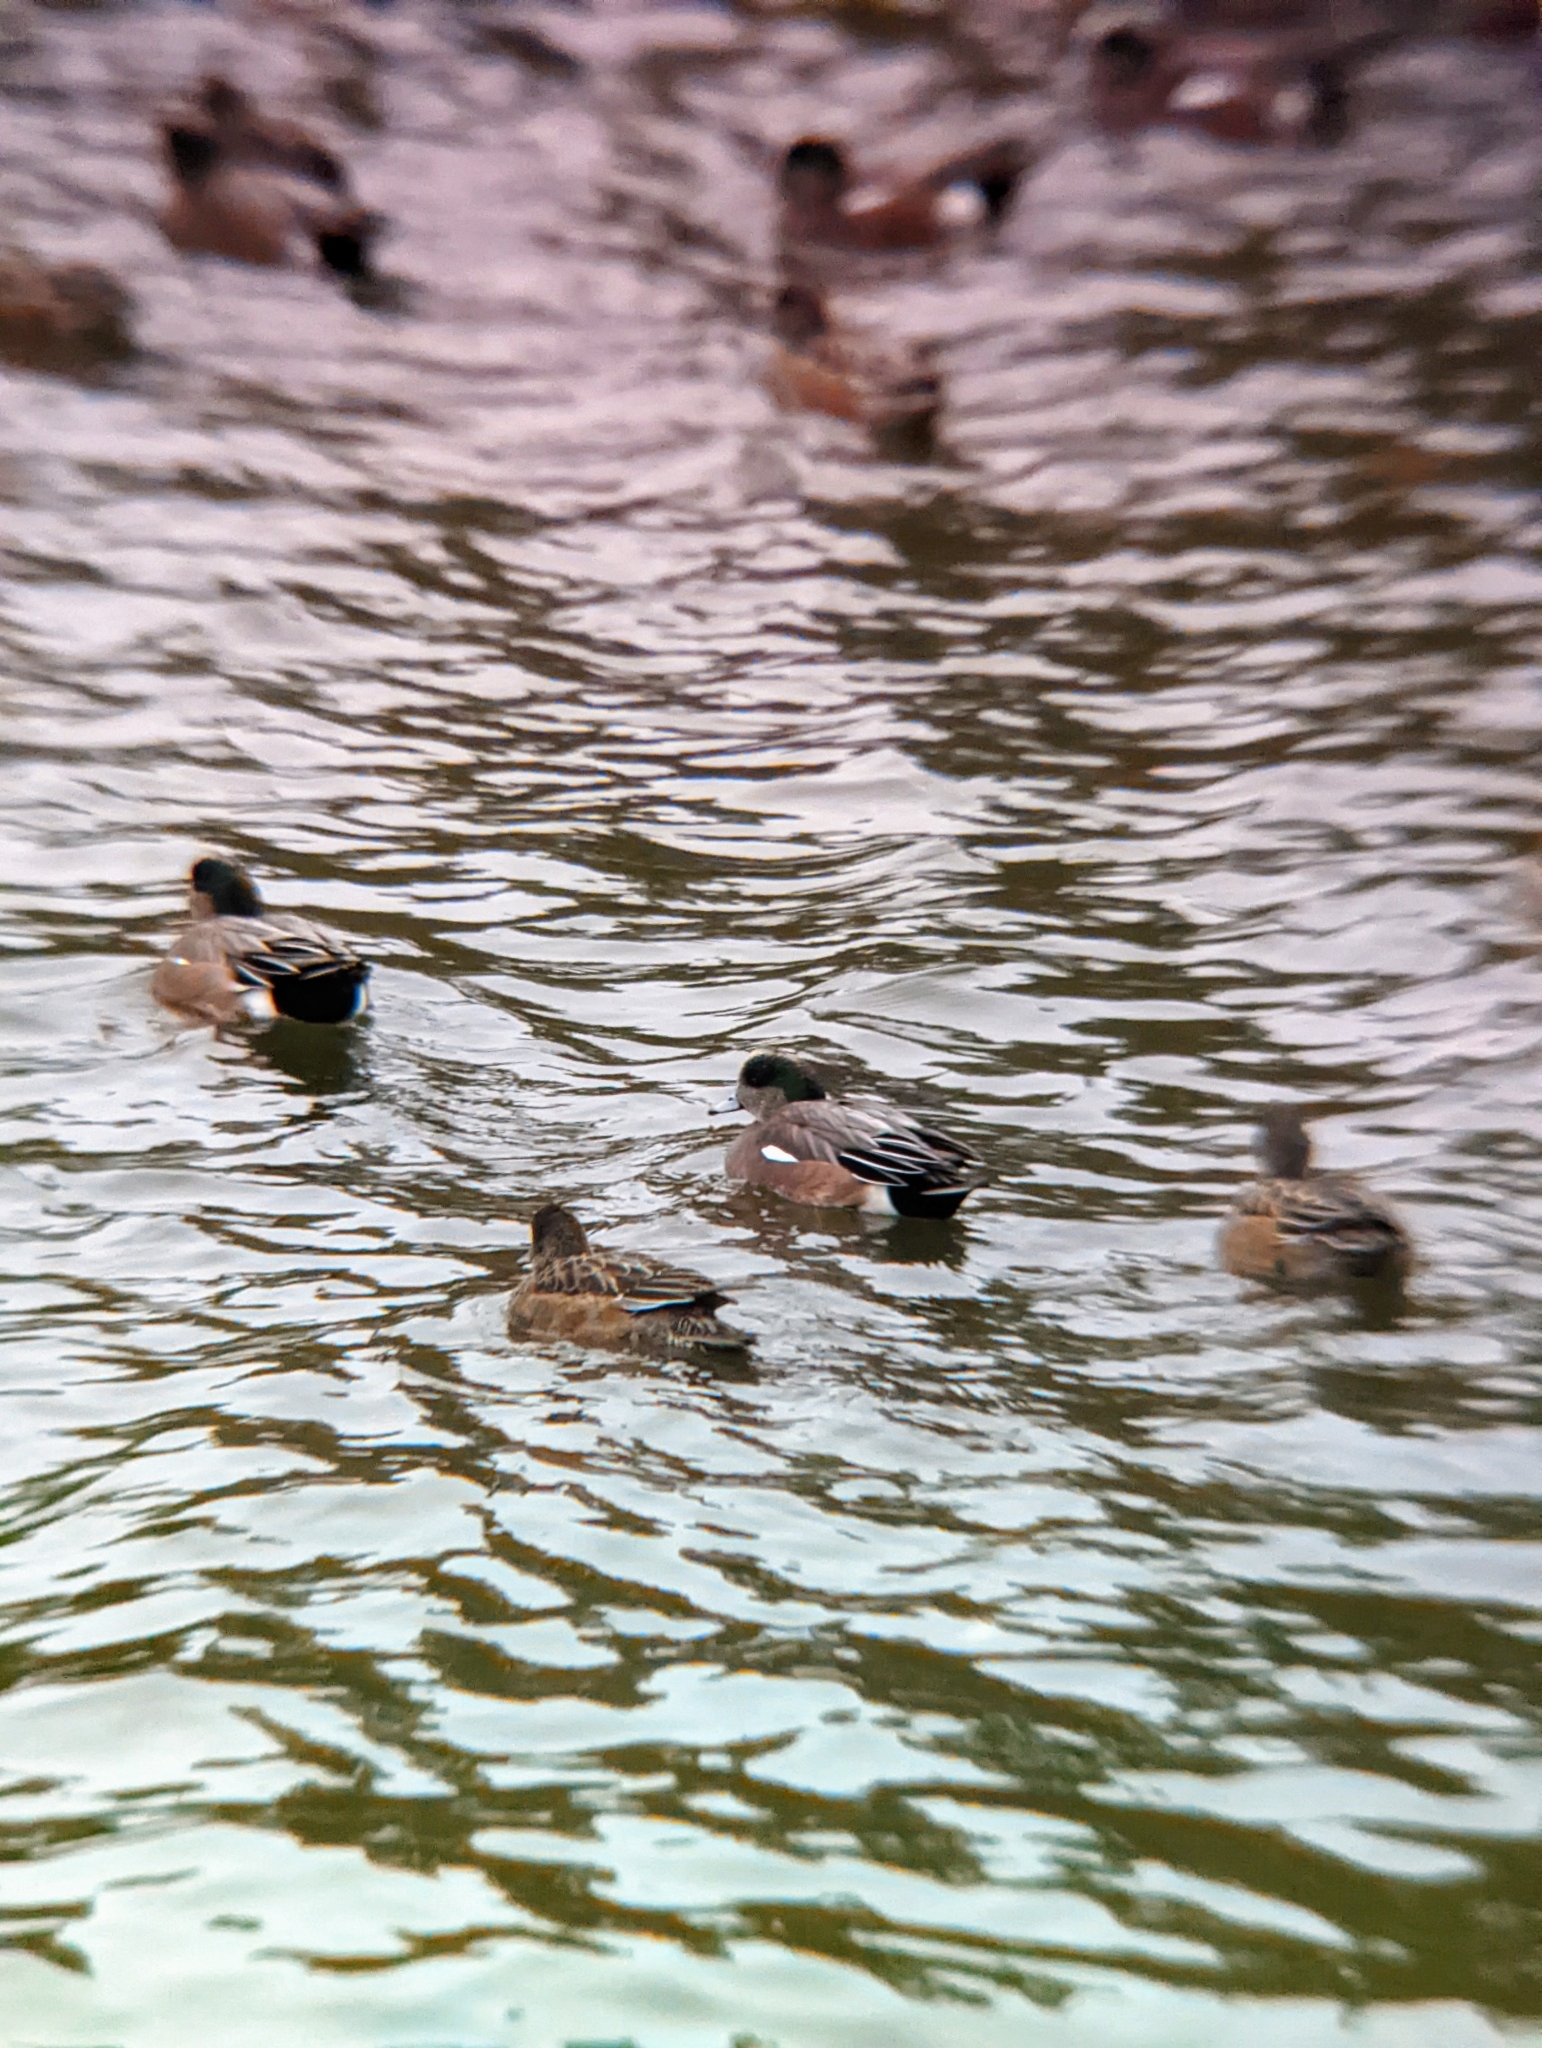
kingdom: Animalia
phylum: Chordata
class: Aves
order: Anseriformes
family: Anatidae
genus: Mareca
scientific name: Mareca americana
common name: American wigeon
